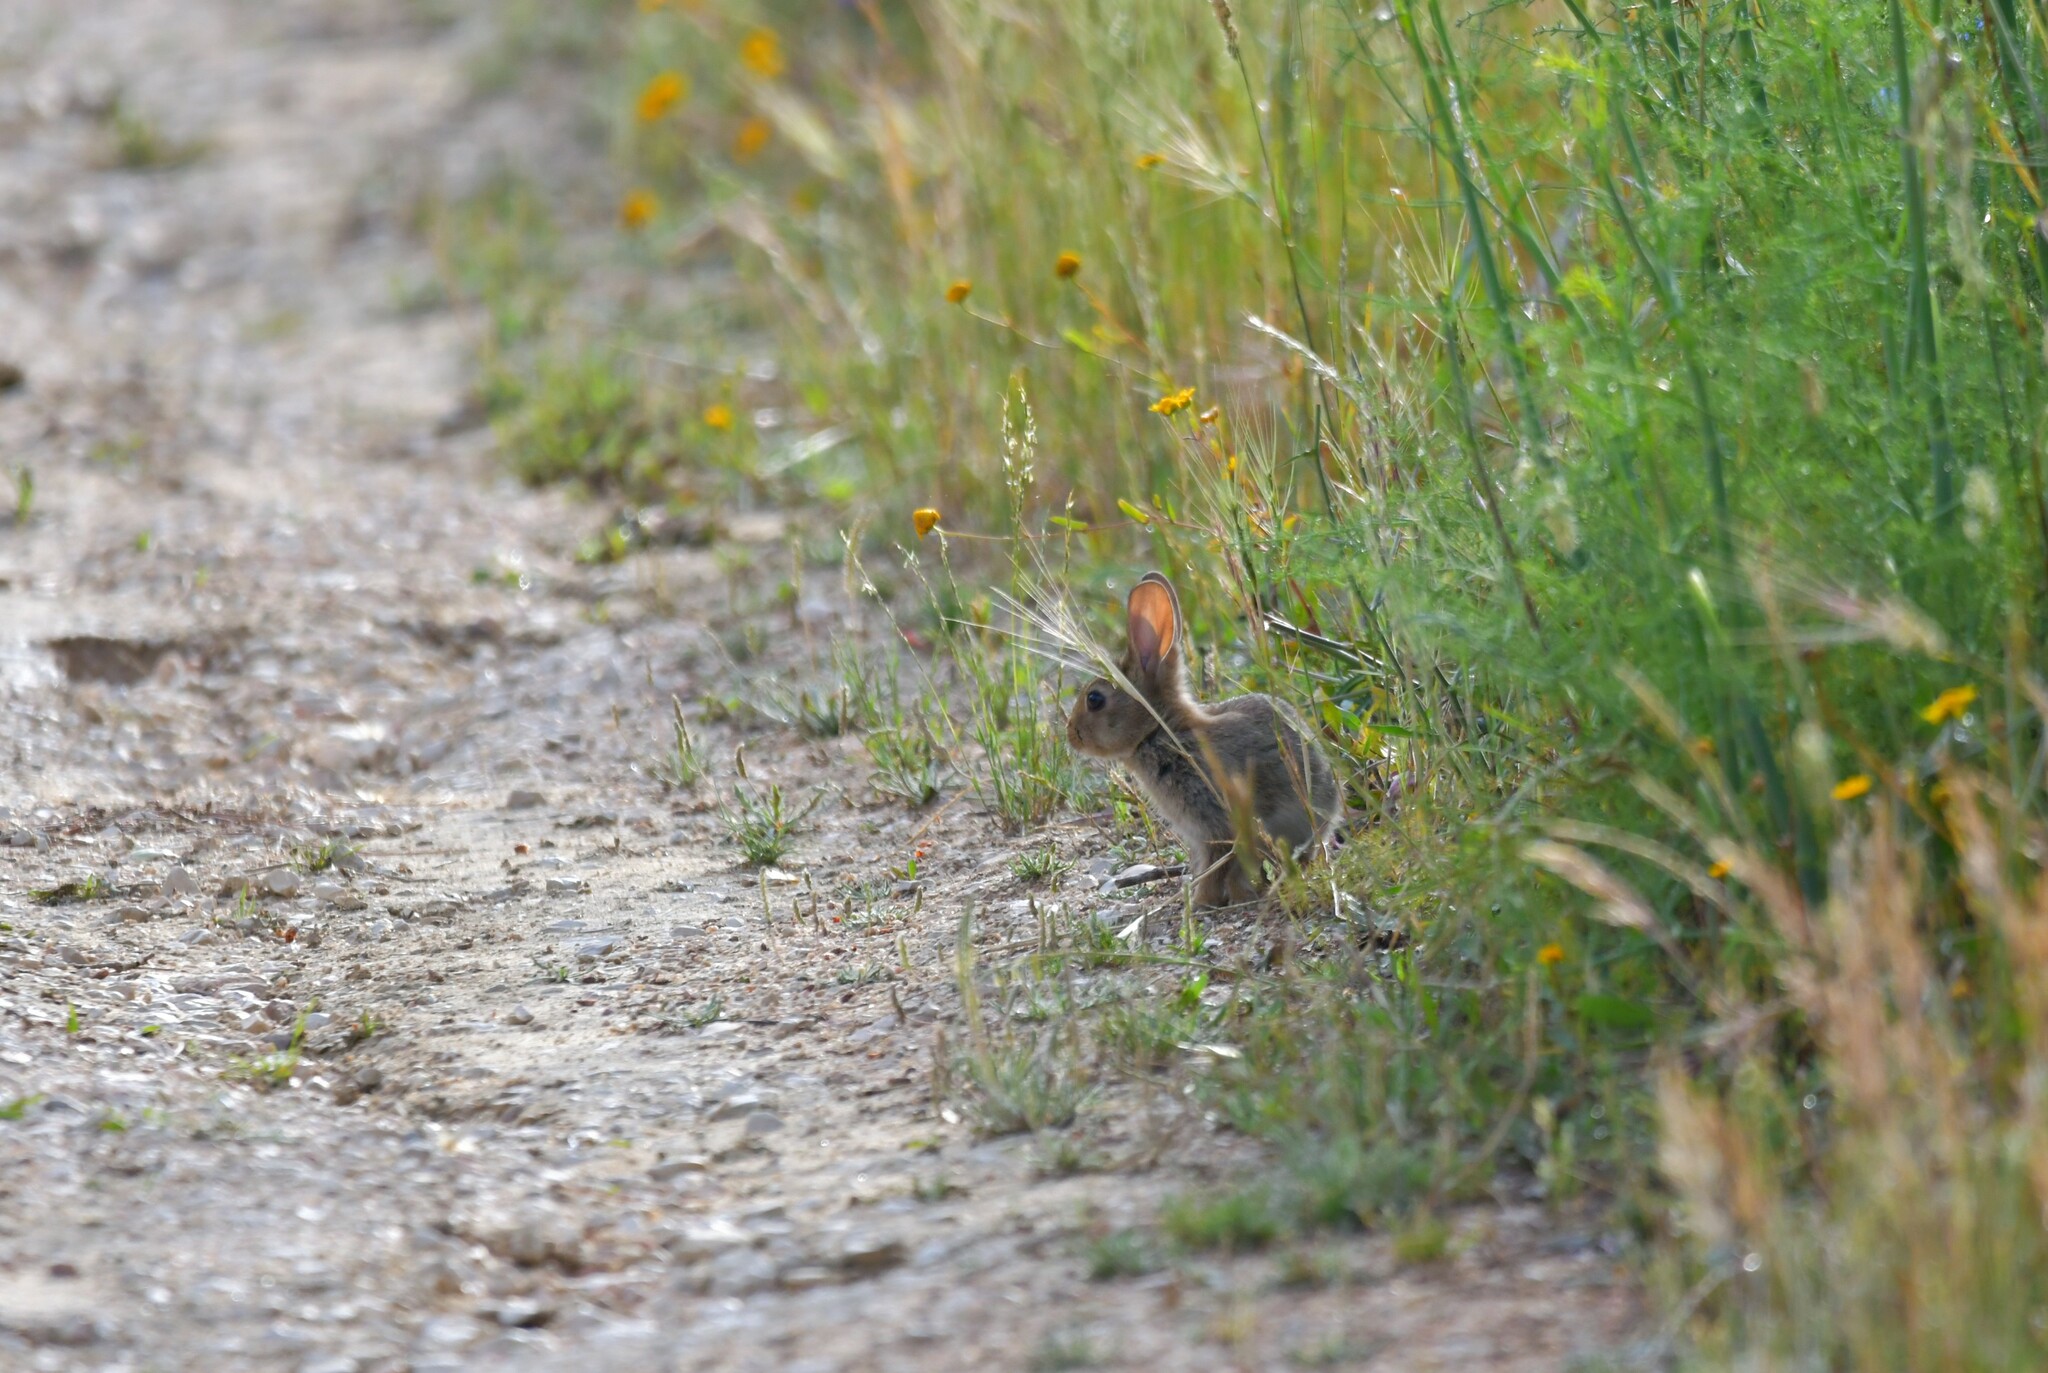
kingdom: Animalia
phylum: Chordata
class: Mammalia
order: Lagomorpha
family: Leporidae
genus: Oryctolagus
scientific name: Oryctolagus cuniculus
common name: European rabbit
